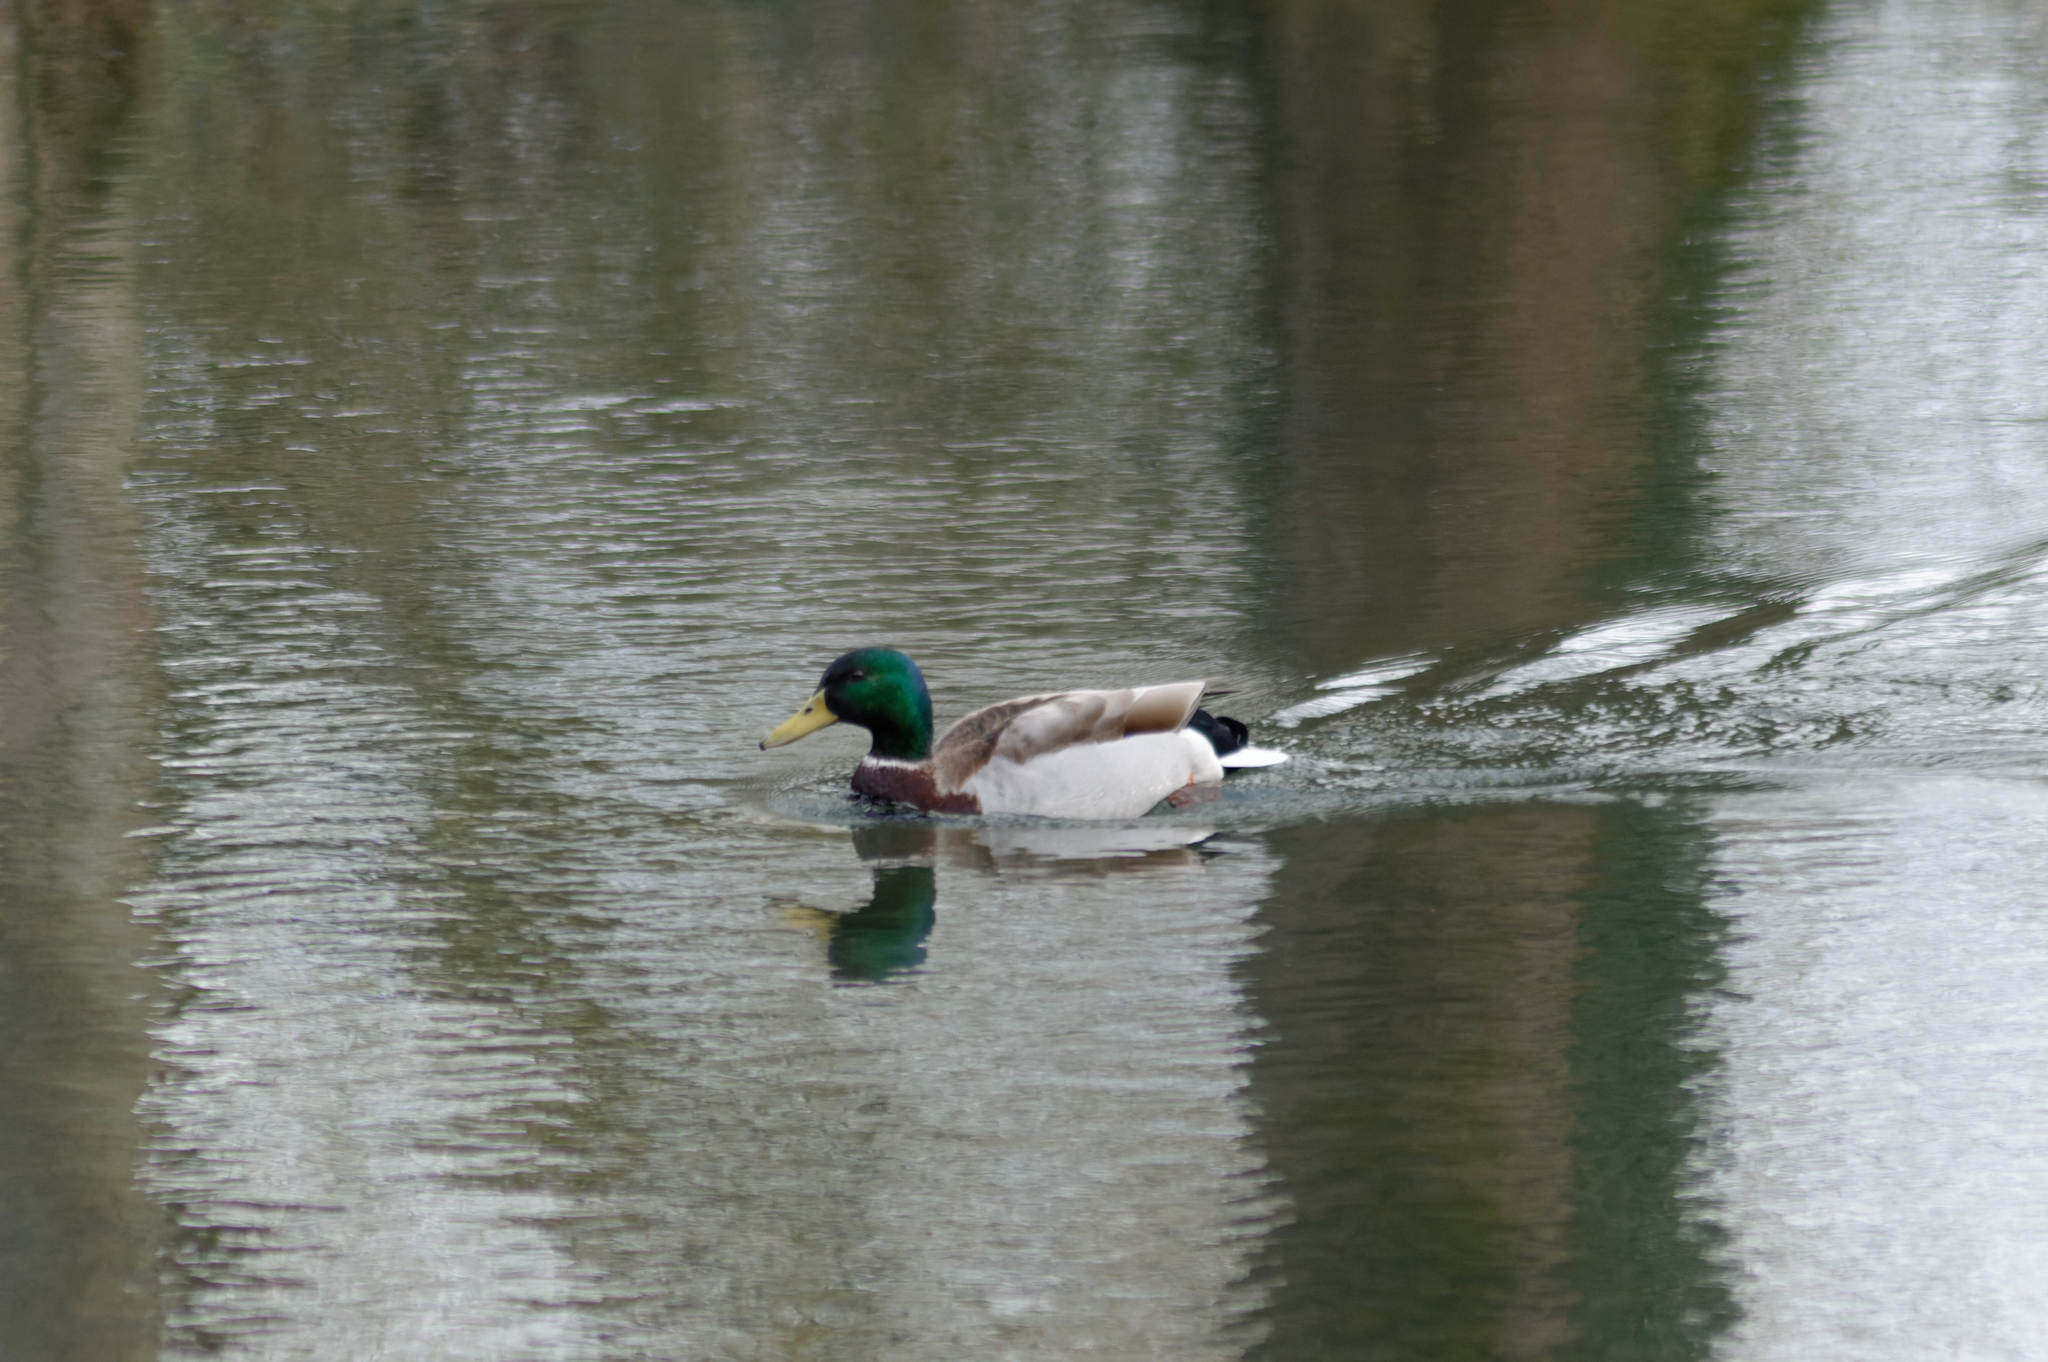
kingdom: Animalia
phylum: Chordata
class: Aves
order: Anseriformes
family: Anatidae
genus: Anas
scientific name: Anas platyrhynchos
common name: Mallard
